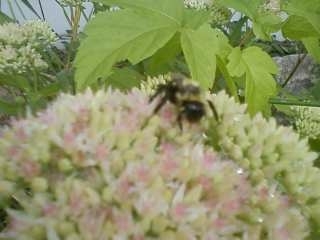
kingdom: Animalia
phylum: Arthropoda
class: Insecta
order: Hymenoptera
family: Apidae
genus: Bombus
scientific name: Bombus
